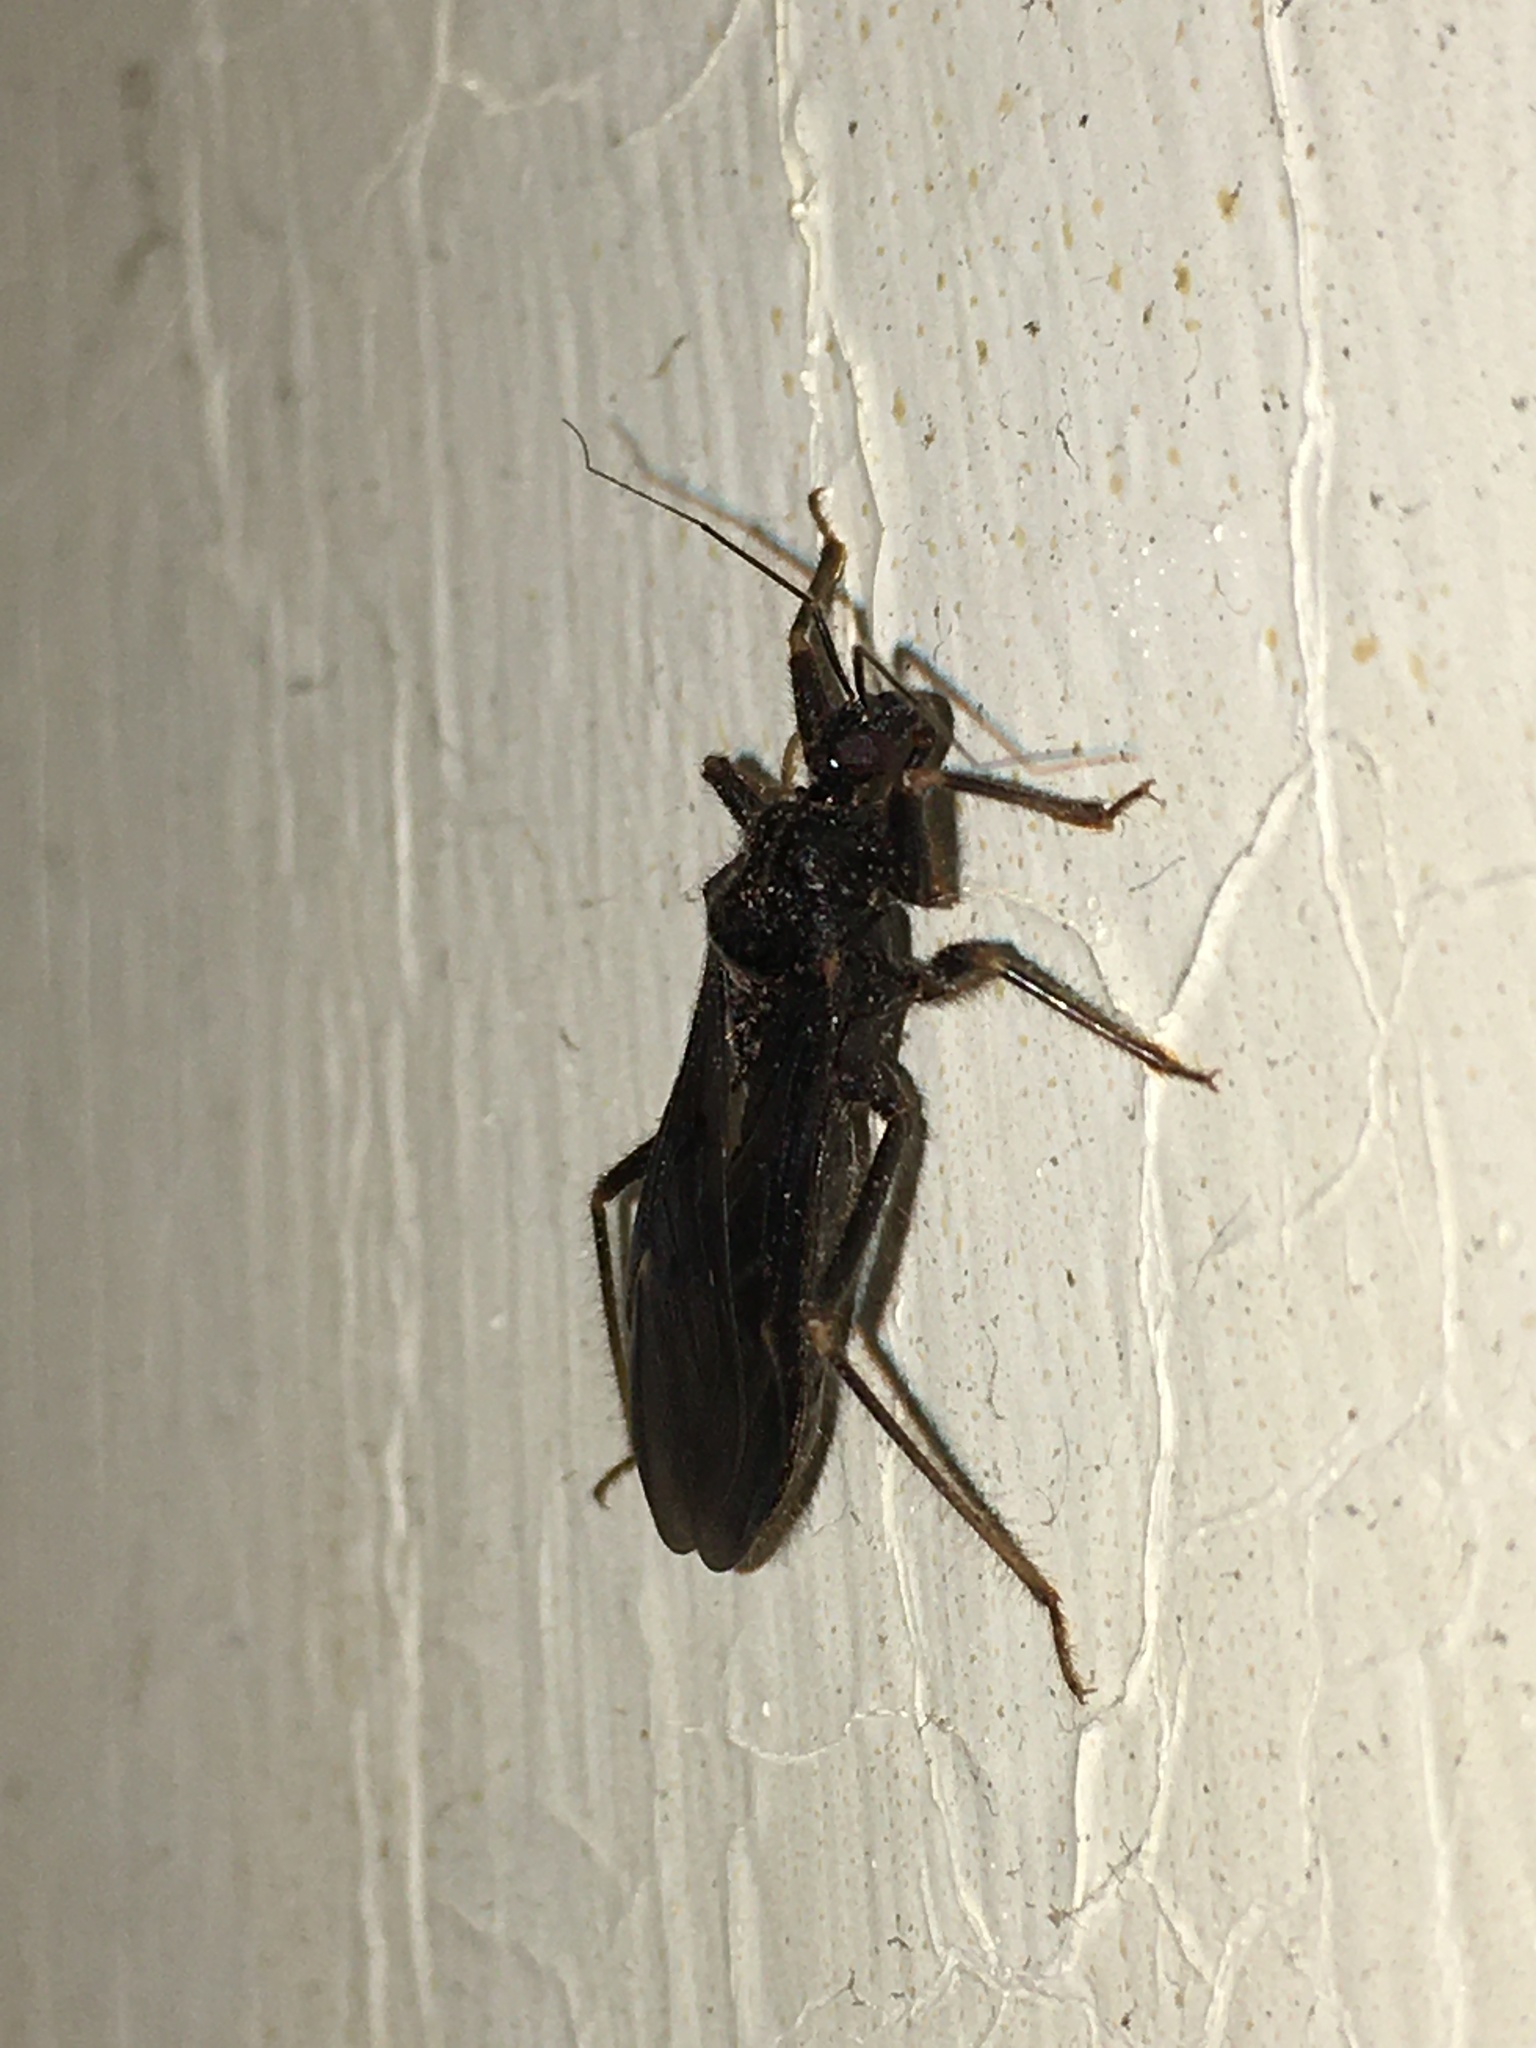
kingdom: Animalia
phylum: Arthropoda
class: Insecta
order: Hemiptera
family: Reduviidae
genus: Reduvius
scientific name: Reduvius personatus
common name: Masked hunter
